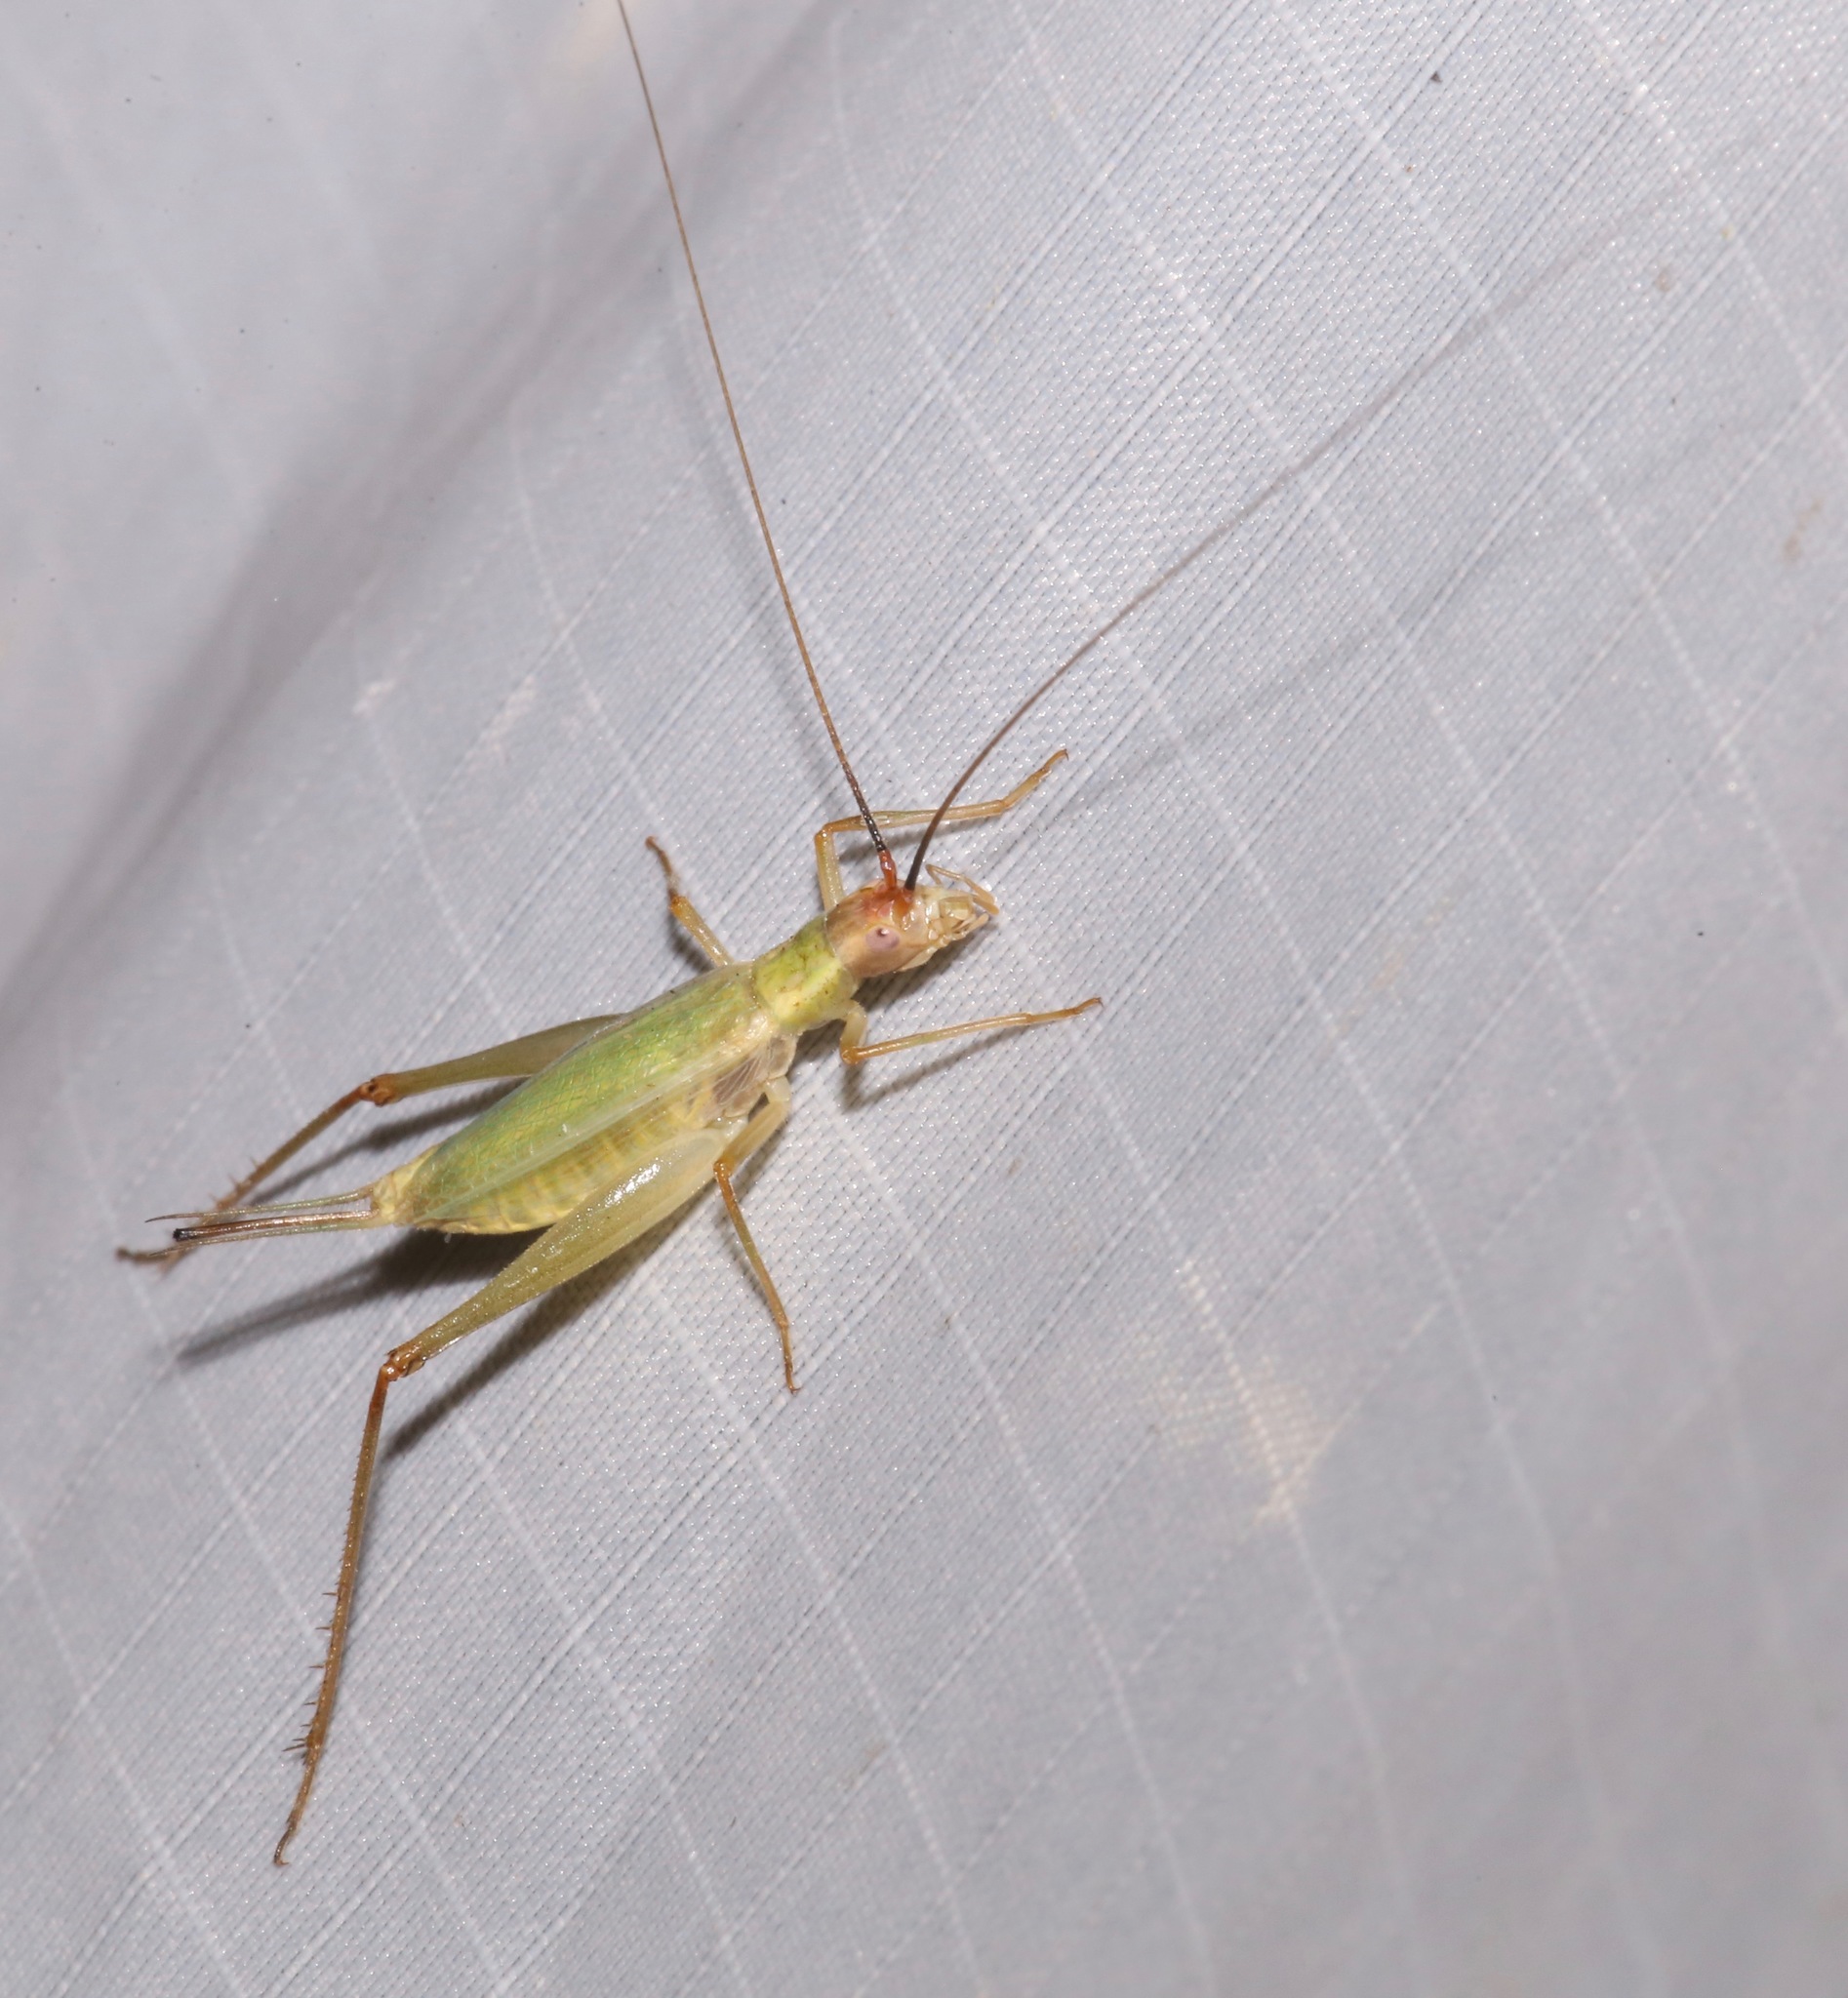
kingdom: Animalia
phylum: Arthropoda
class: Insecta
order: Orthoptera
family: Gryllidae
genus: Oecanthus
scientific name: Oecanthus californicus
